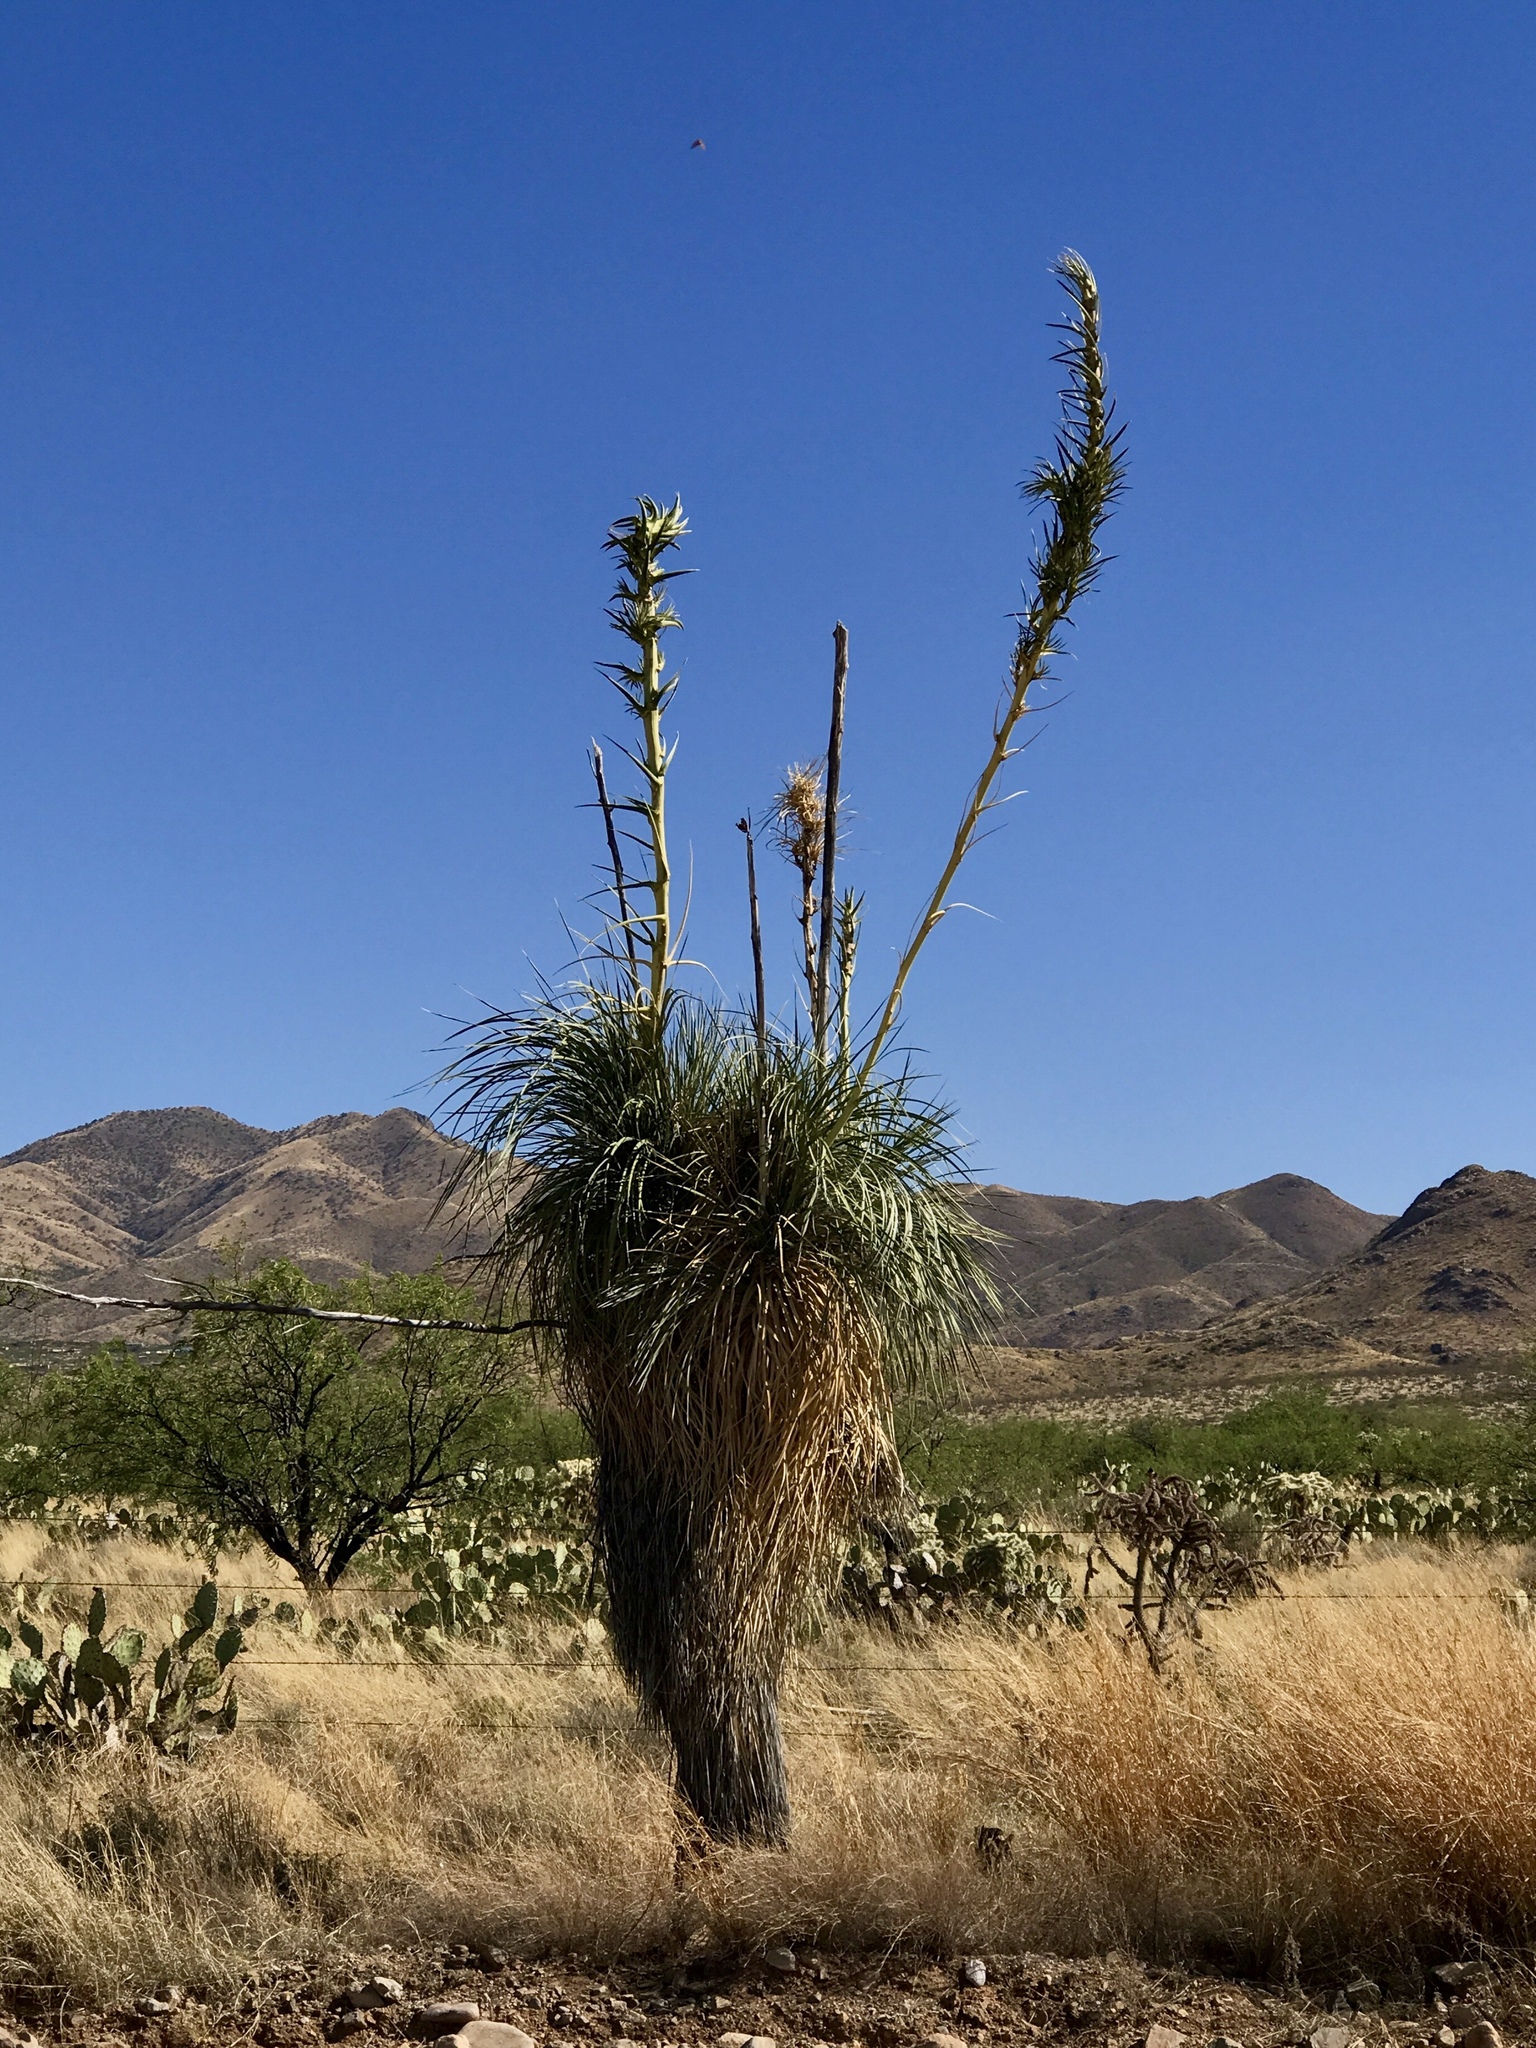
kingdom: Plantae
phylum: Tracheophyta
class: Liliopsida
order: Asparagales
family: Asparagaceae
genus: Yucca
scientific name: Yucca elata
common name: Palmella
